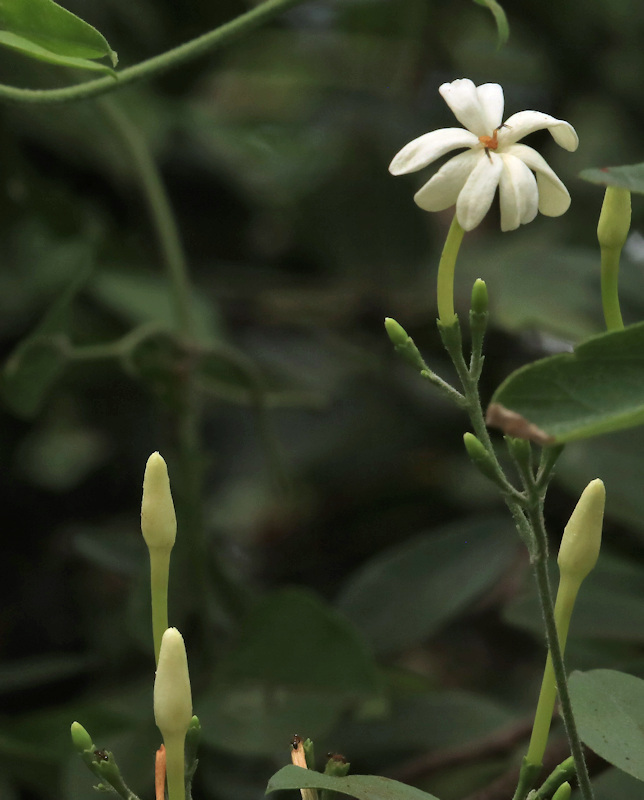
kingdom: Plantae
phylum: Tracheophyta
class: Magnoliopsida
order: Lamiales
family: Oleaceae
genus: Jasminum
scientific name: Jasminum fluminense
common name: Brazilian jasmine
